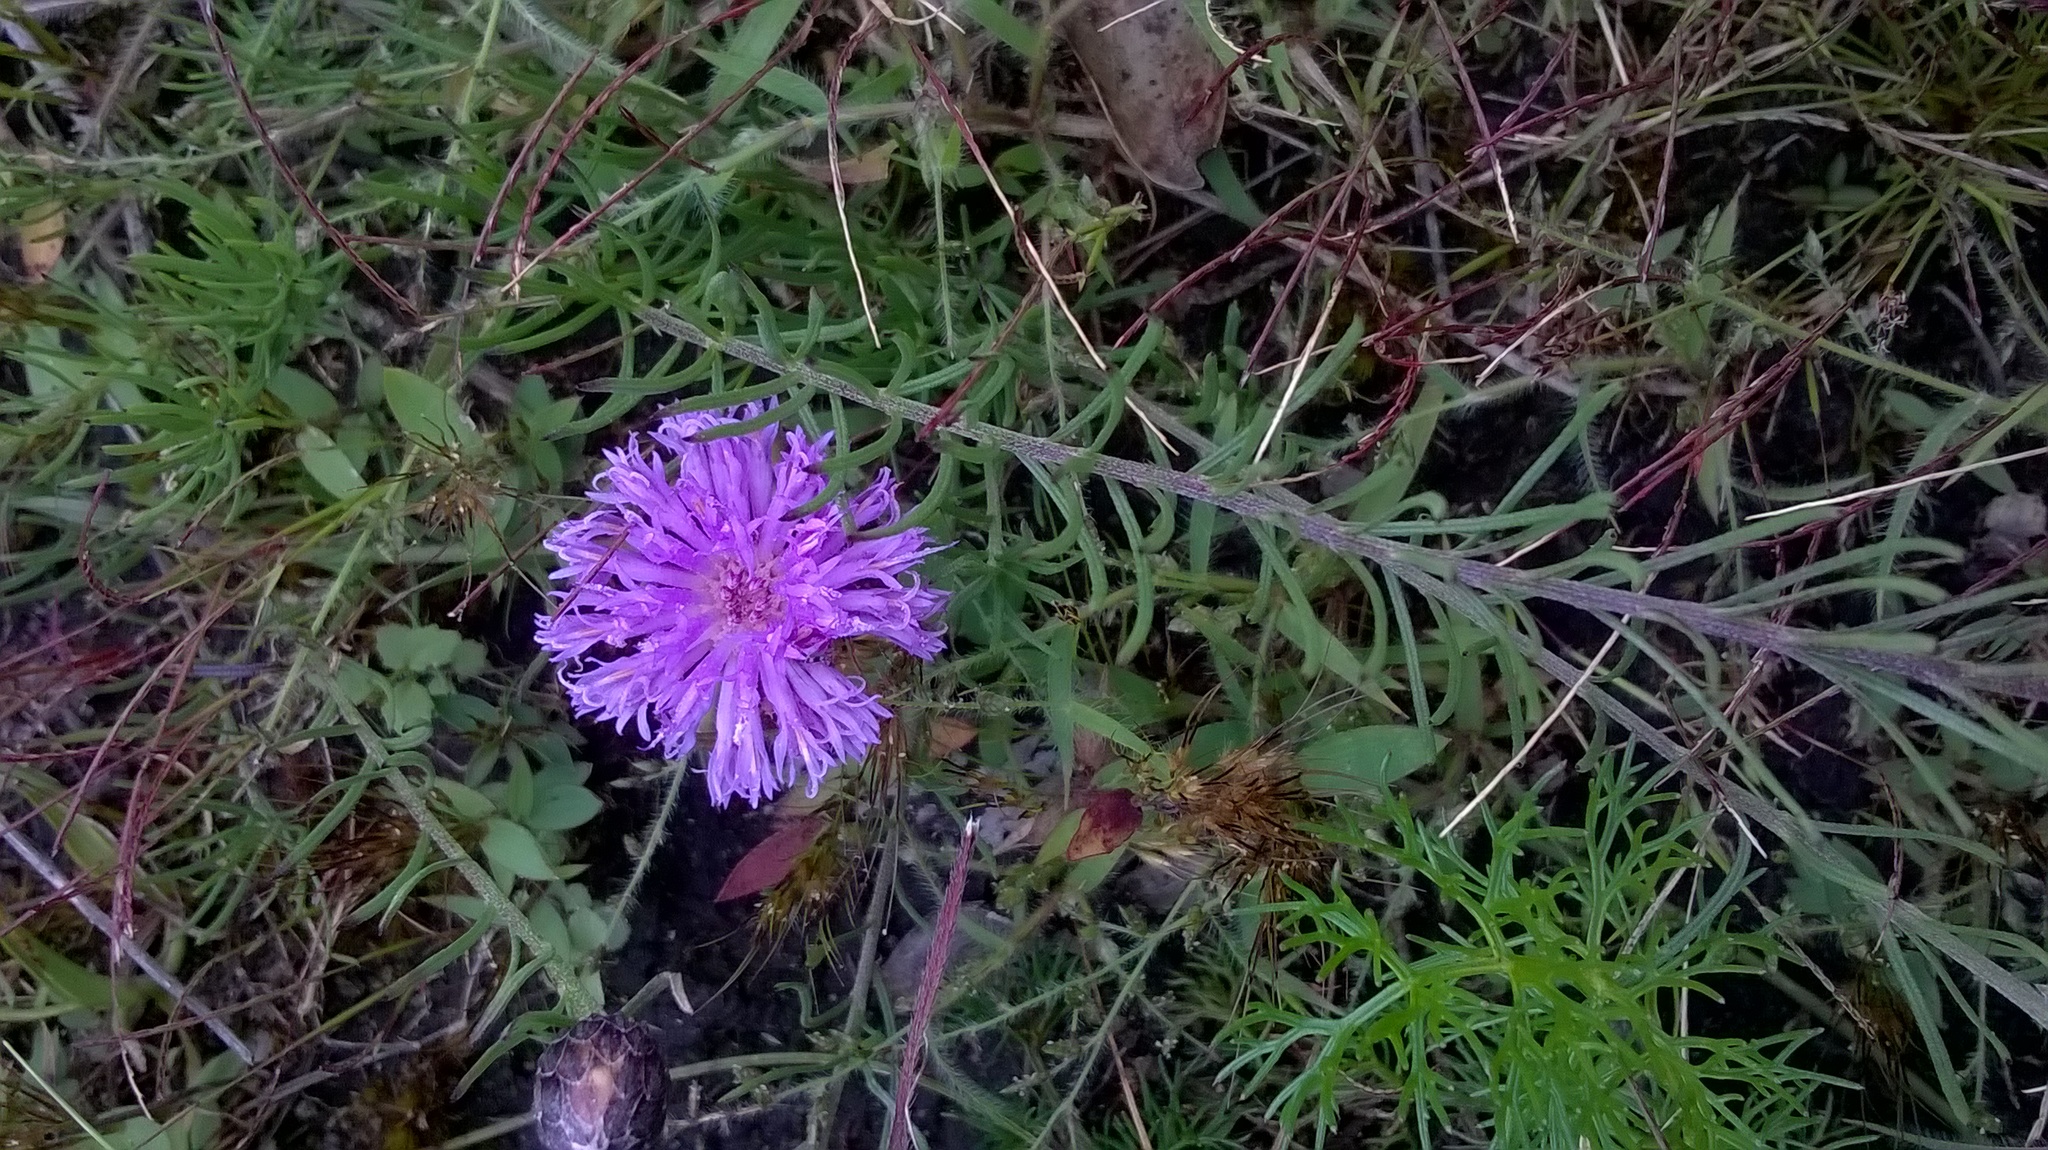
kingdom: Plantae
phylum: Tracheophyta
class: Magnoliopsida
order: Asterales
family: Asteraceae
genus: Crystallopollen
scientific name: Crystallopollen bainesii
